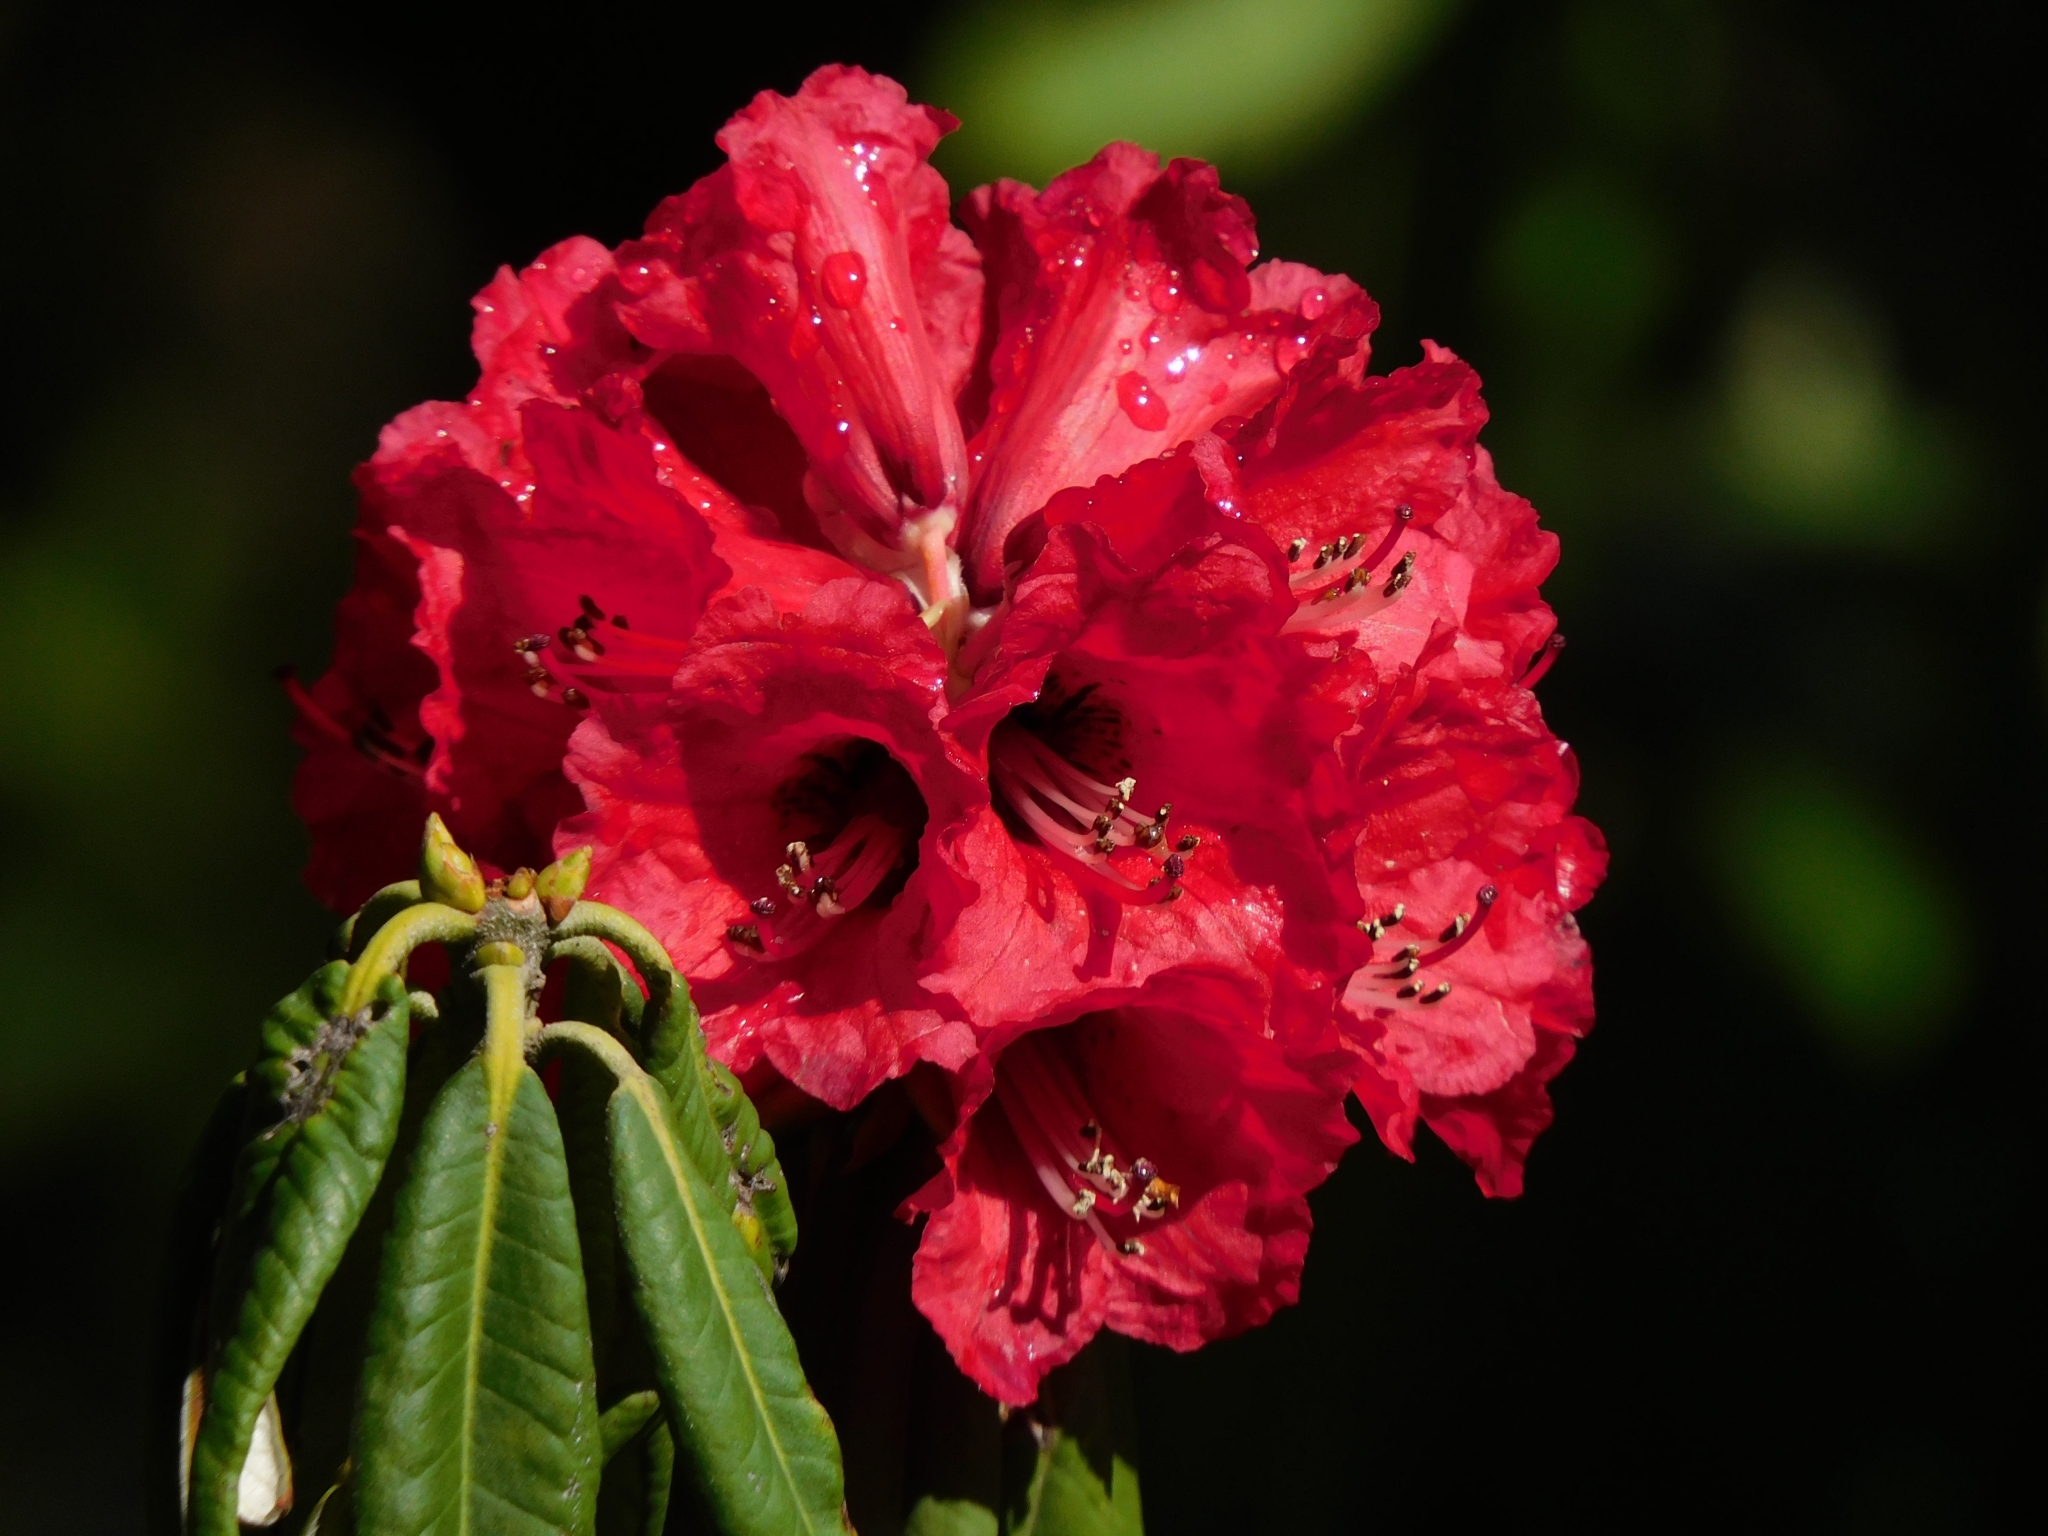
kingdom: Plantae
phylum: Tracheophyta
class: Magnoliopsida
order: Ericales
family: Ericaceae
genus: Rhododendron
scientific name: Rhododendron arboreum
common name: Tree rhododendron
